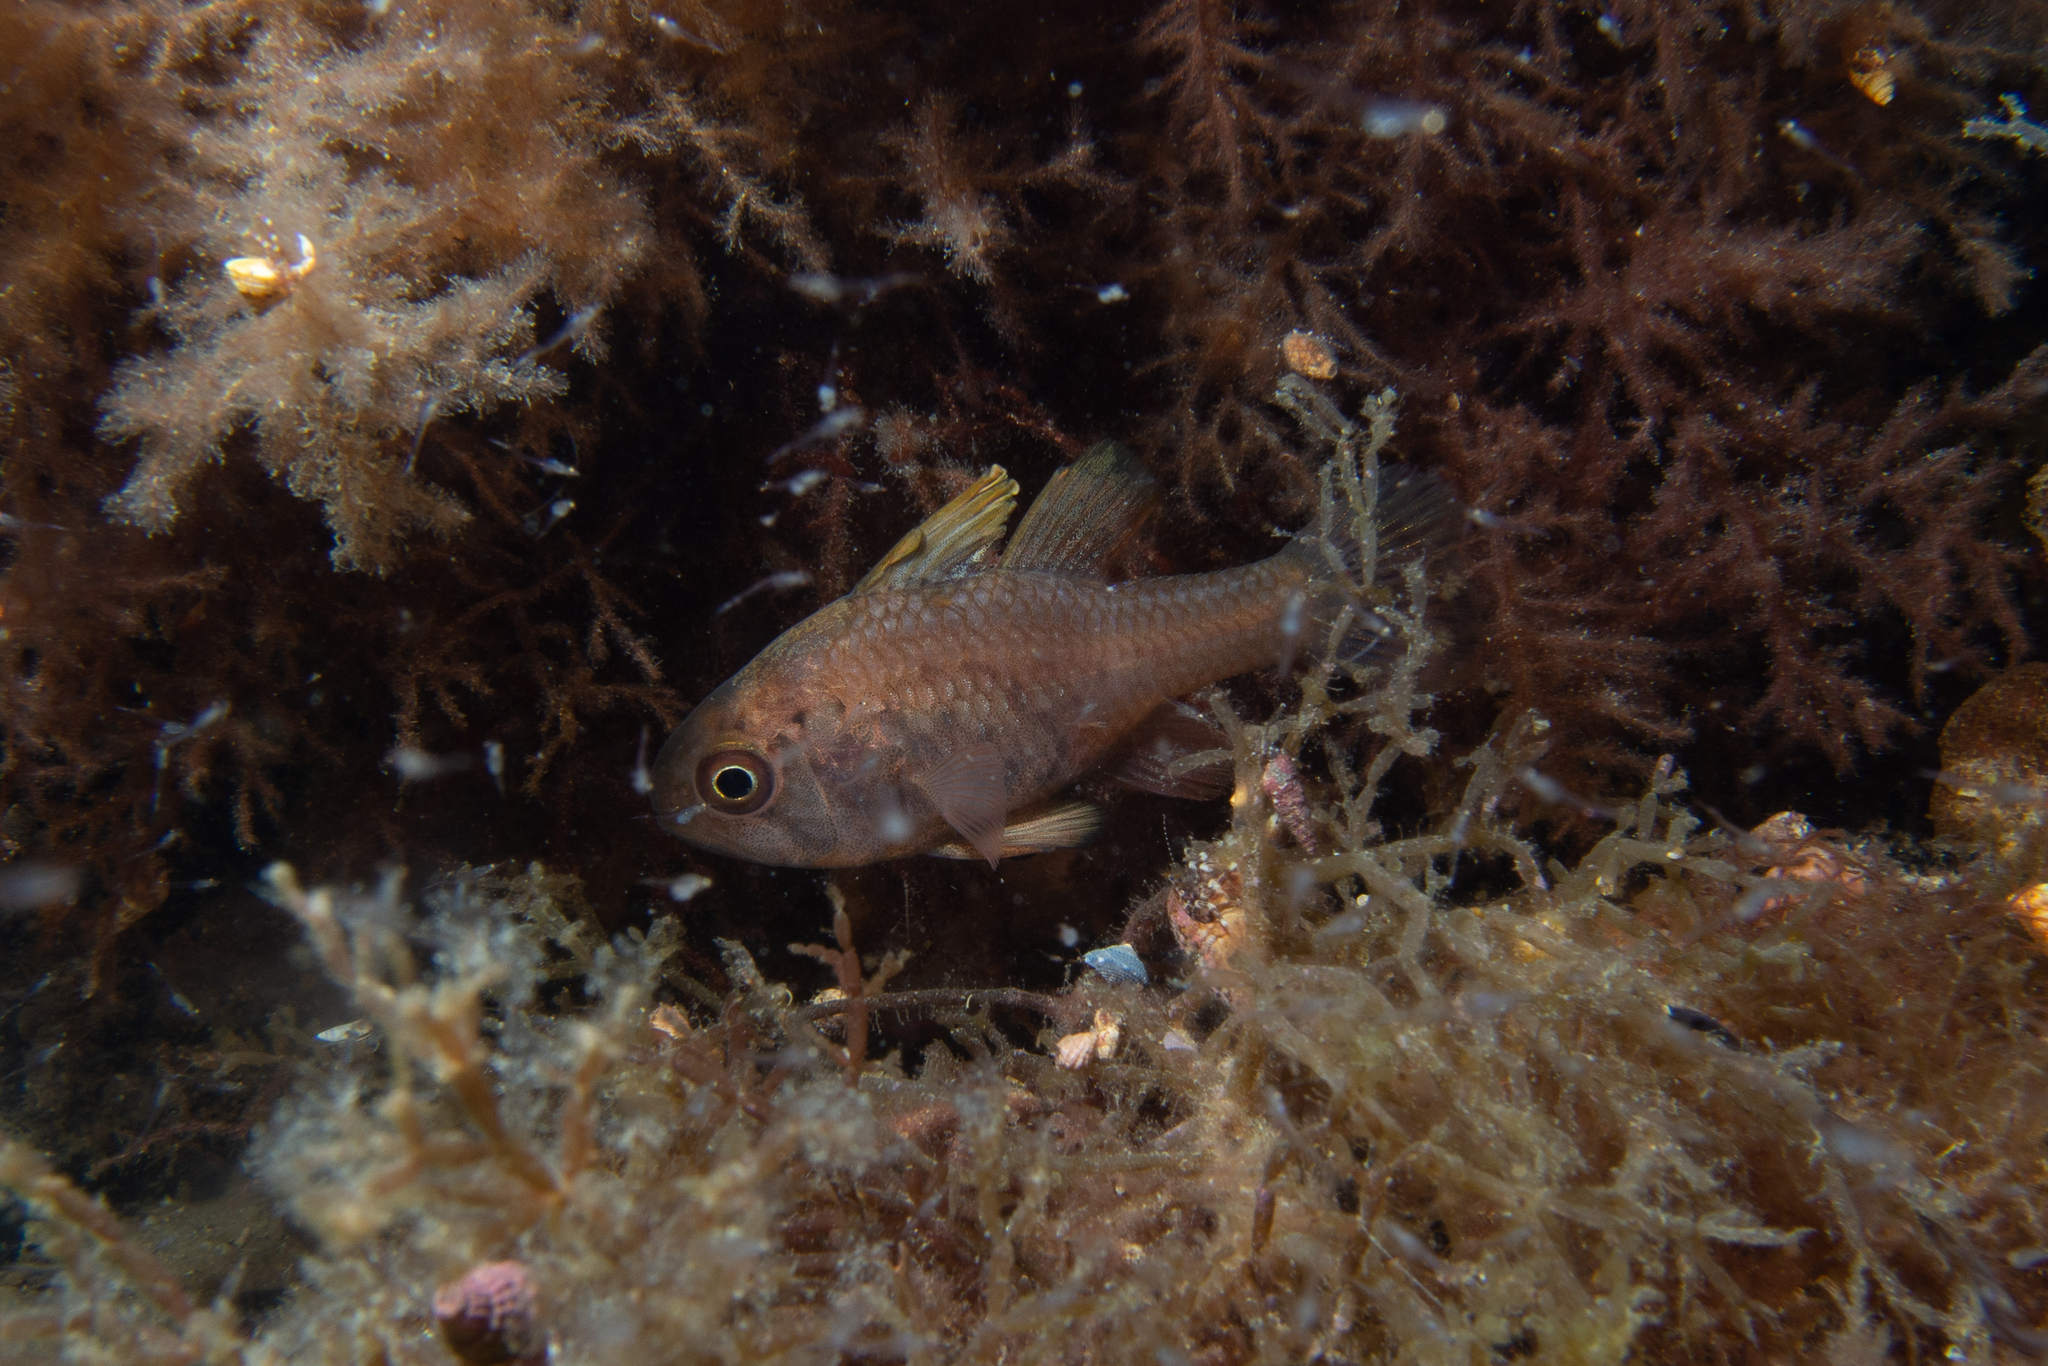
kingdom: Animalia
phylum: Chordata
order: Perciformes
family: Apogonidae
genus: Vincentia
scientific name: Vincentia conspersa
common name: Orange cardinalfish
